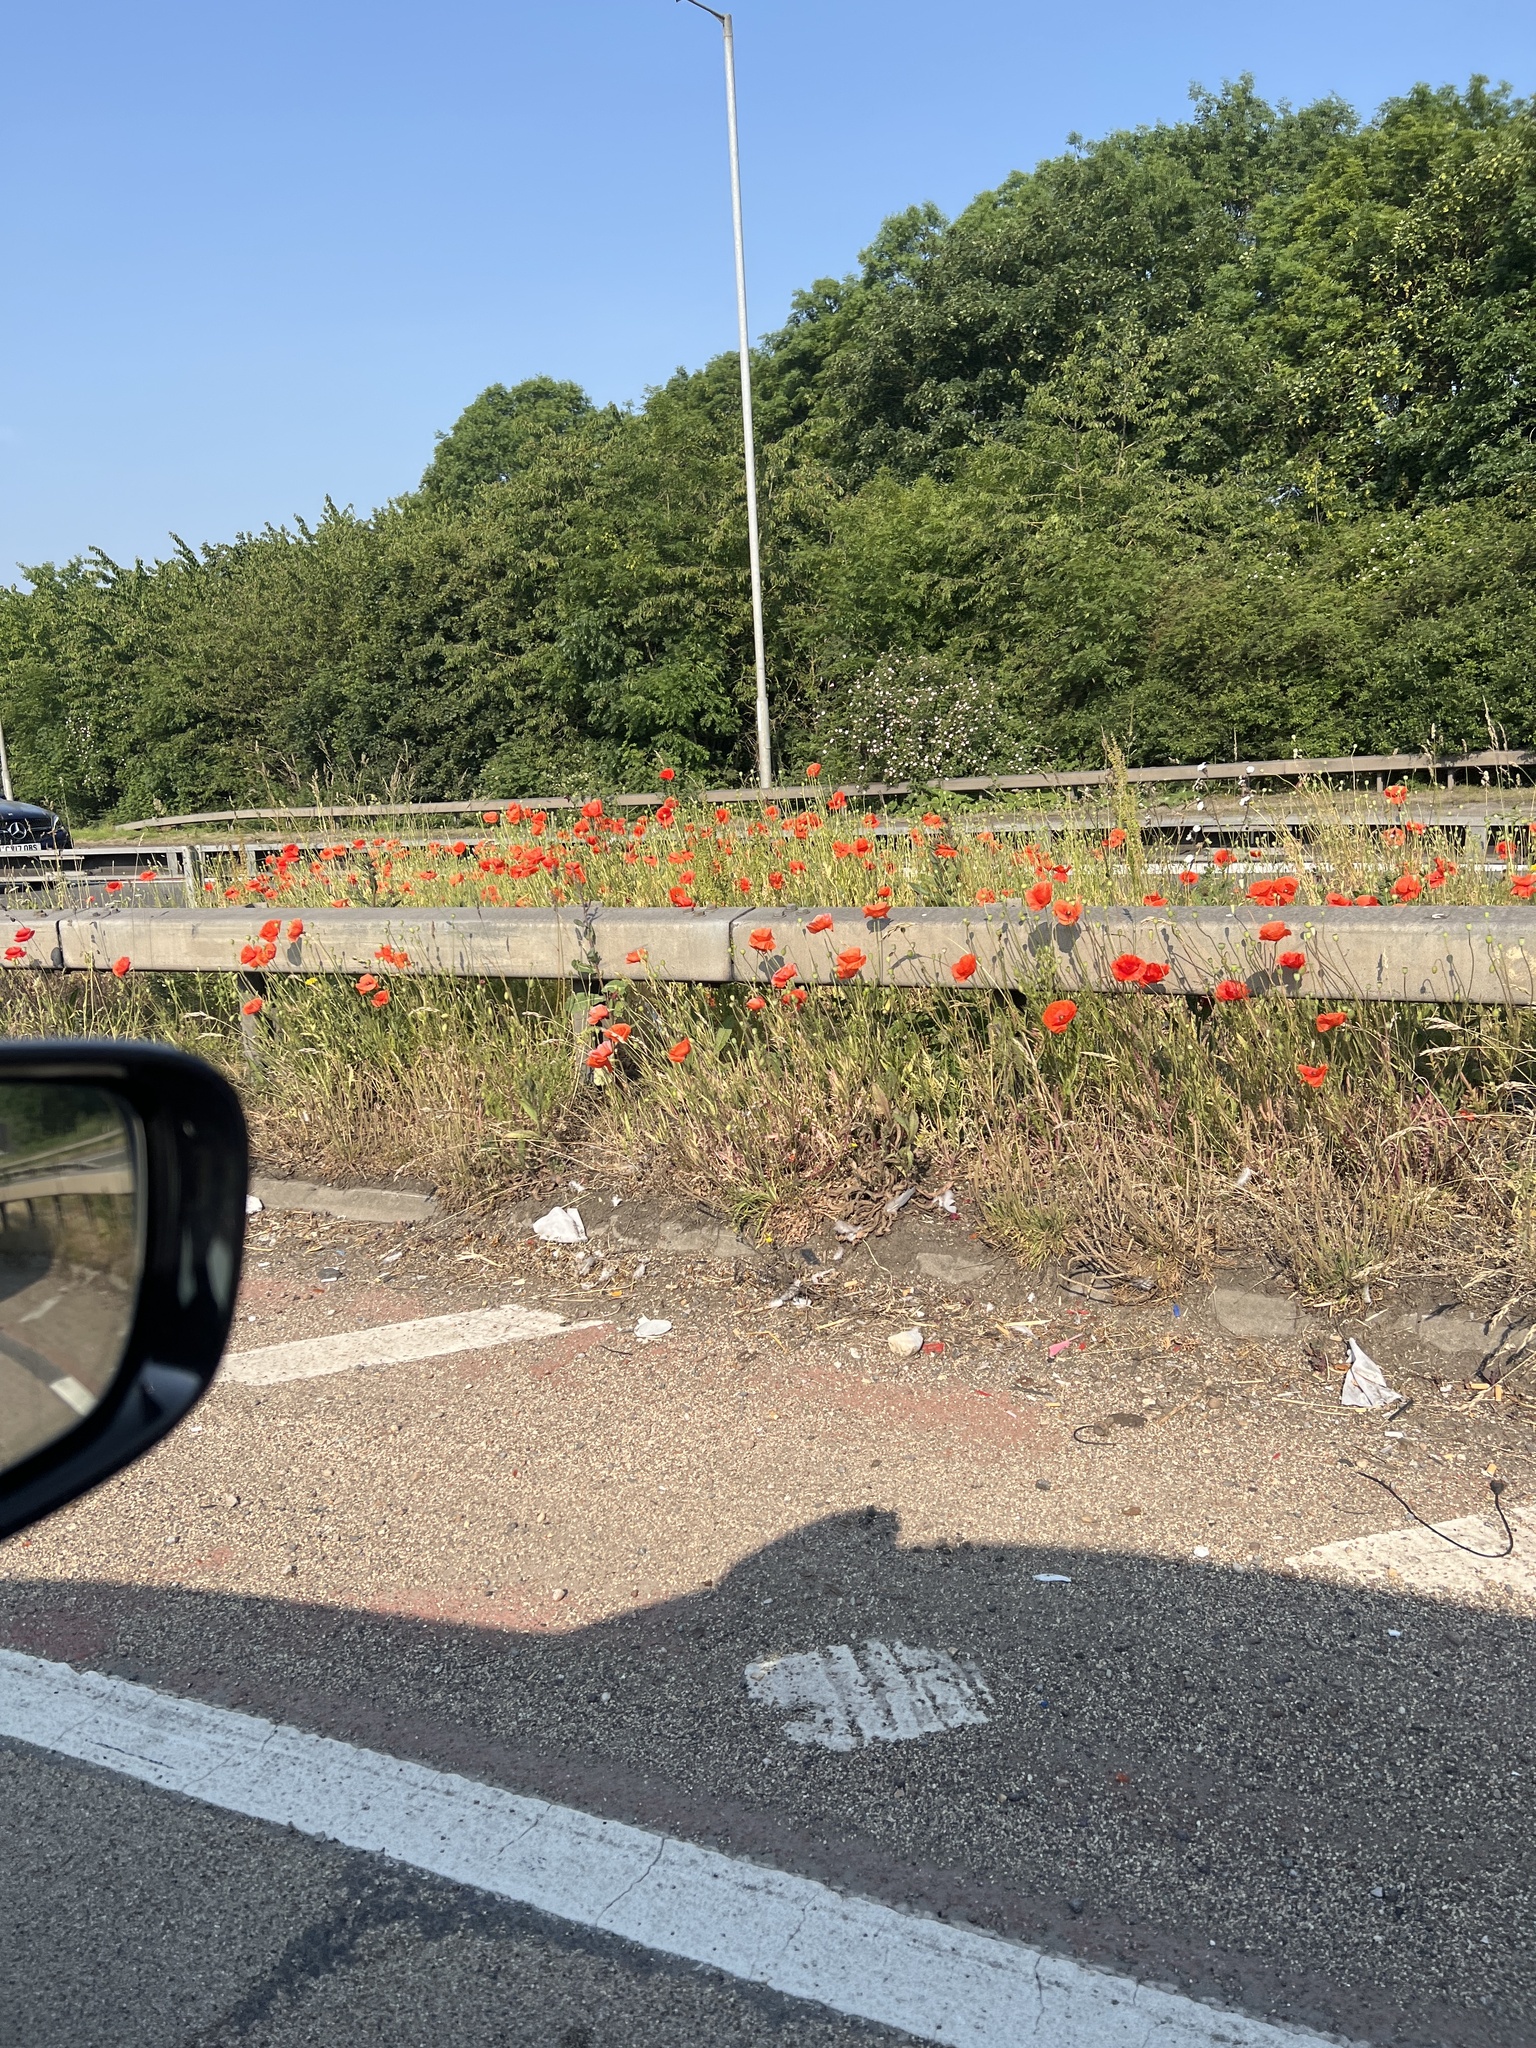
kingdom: Plantae
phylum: Tracheophyta
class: Magnoliopsida
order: Ranunculales
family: Papaveraceae
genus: Papaver
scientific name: Papaver rhoeas
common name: Corn poppy
